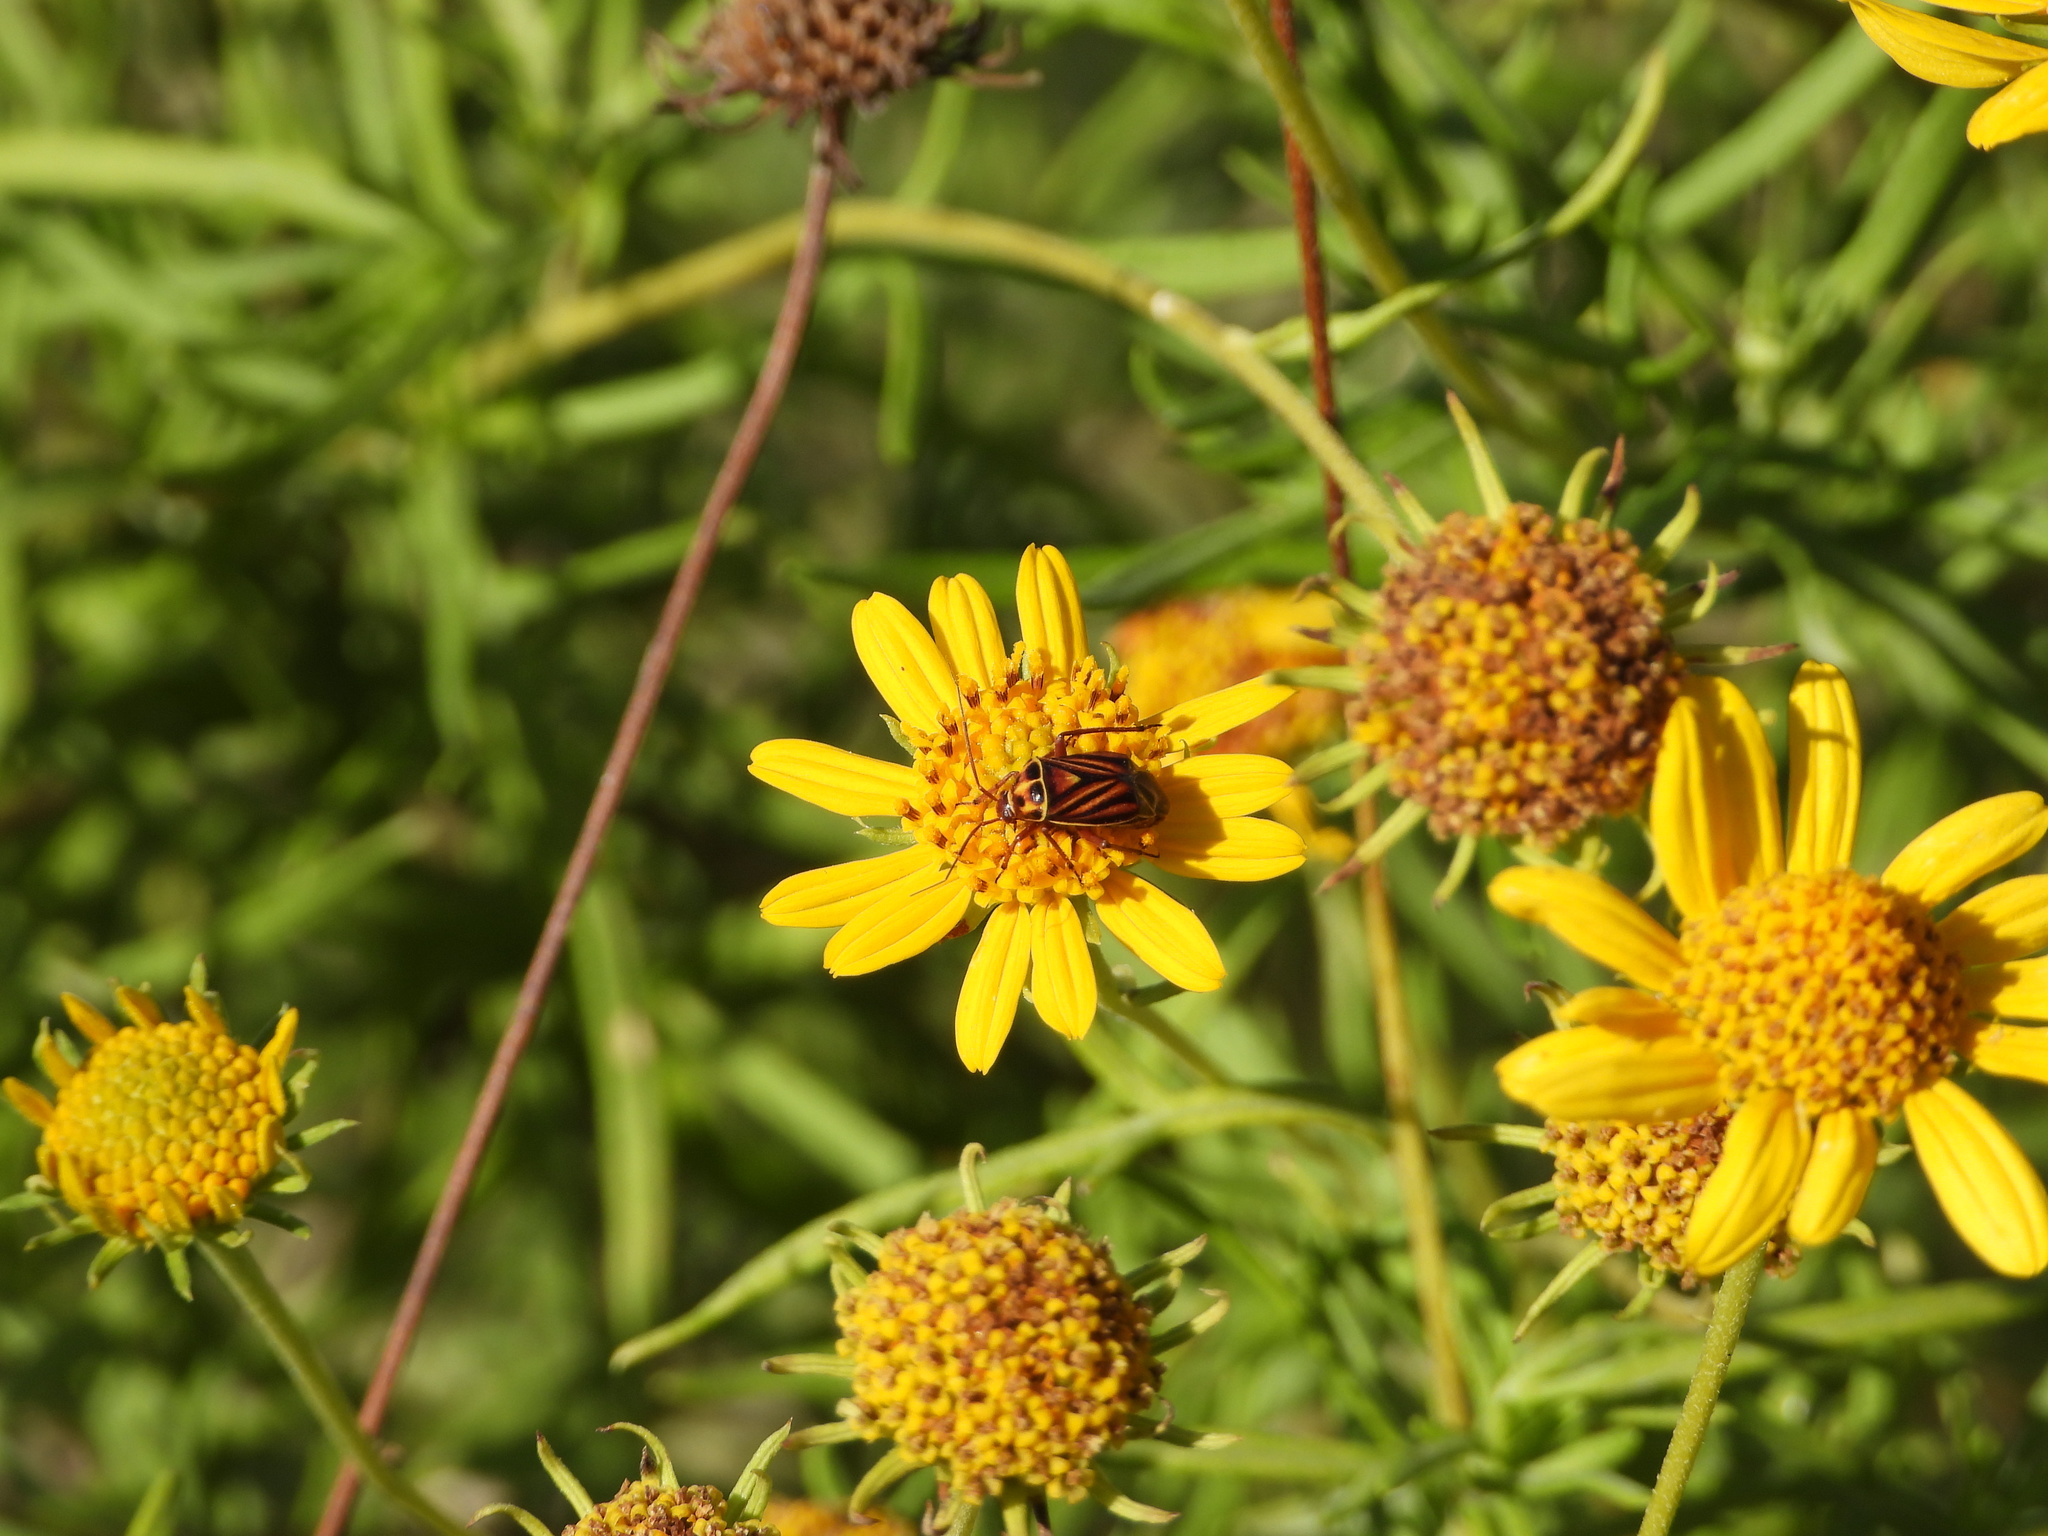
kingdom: Animalia
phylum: Arthropoda
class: Insecta
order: Hemiptera
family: Miridae
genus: Calocoris
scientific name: Calocoris barberi
